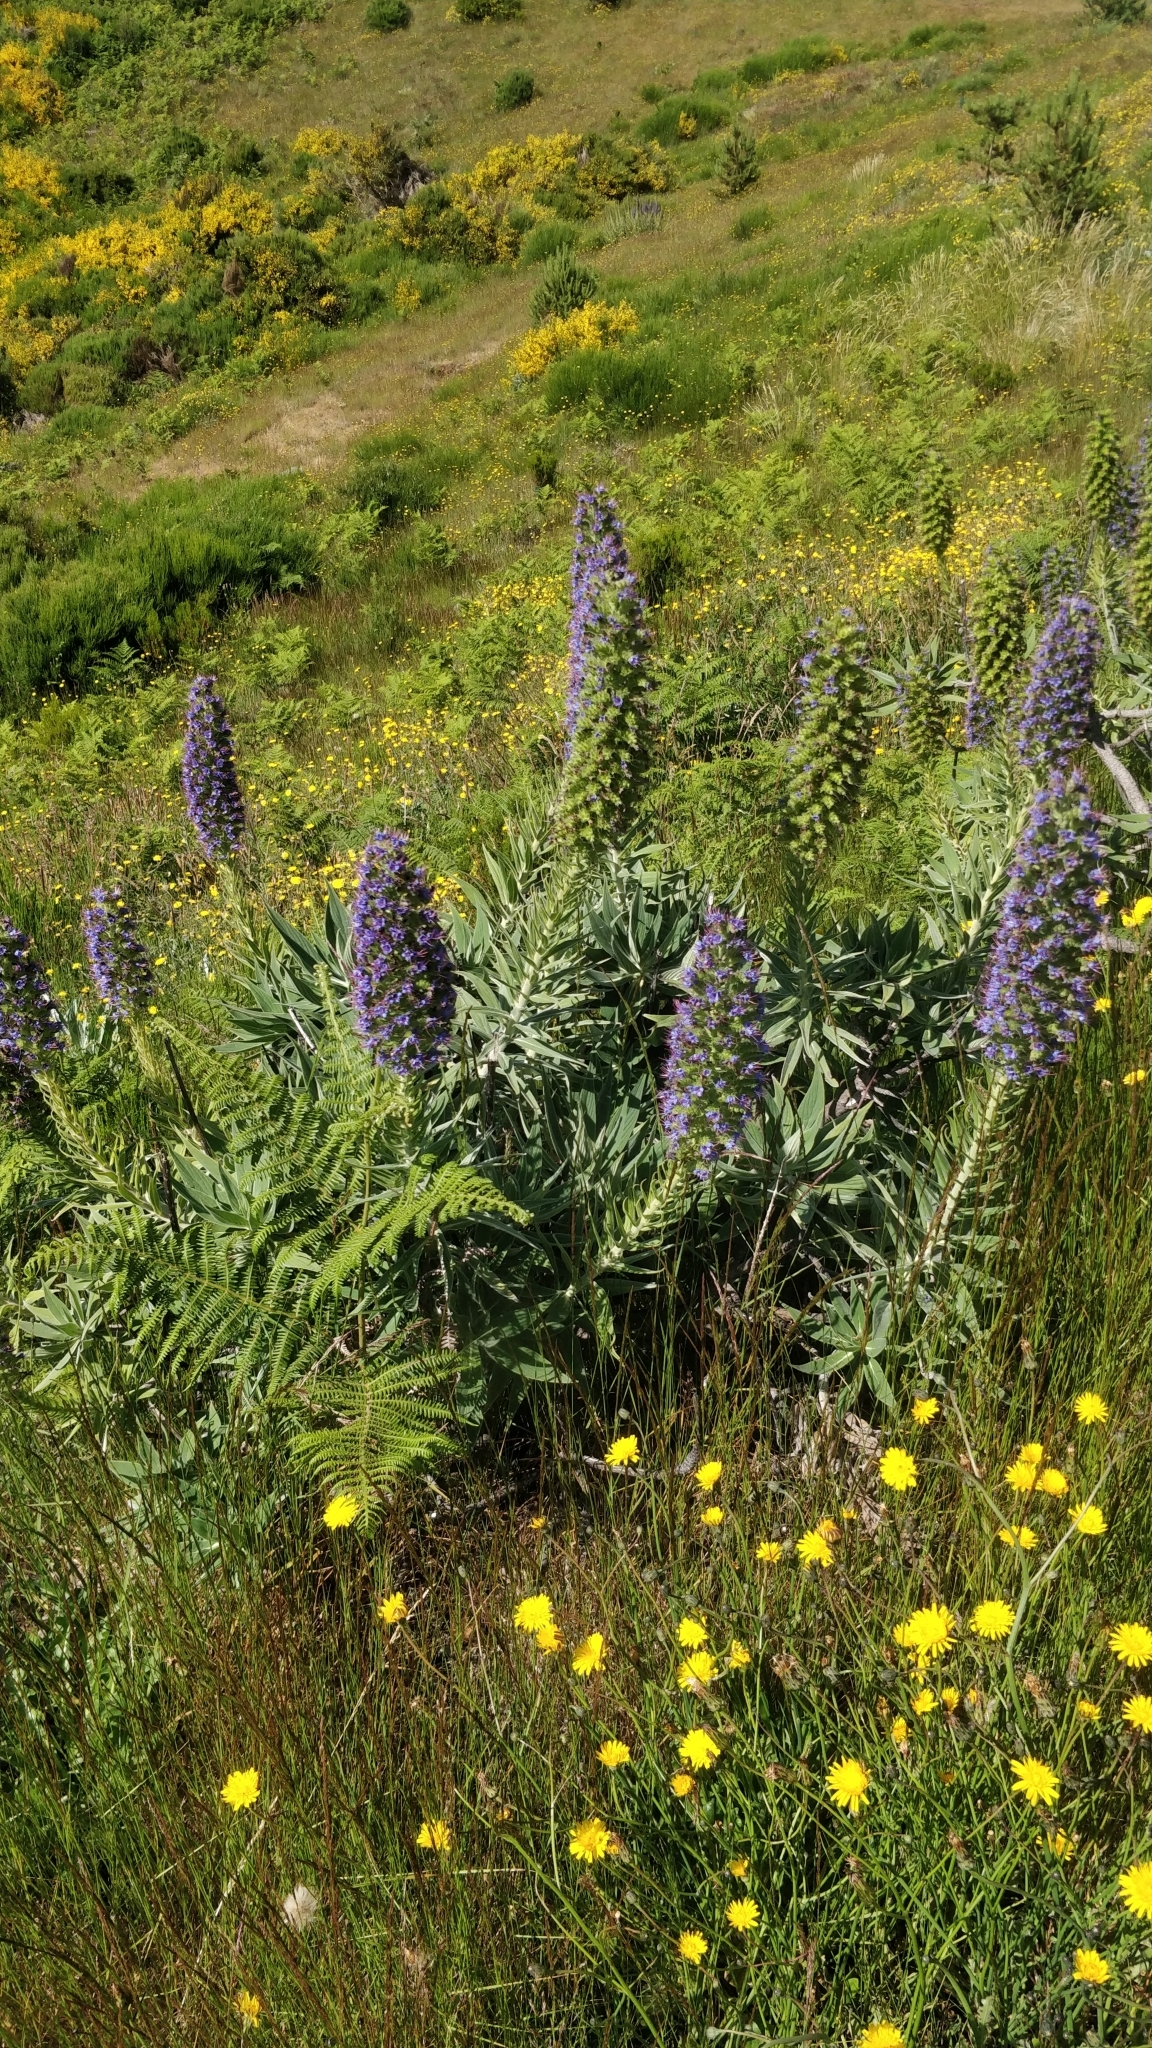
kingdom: Plantae
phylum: Tracheophyta
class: Magnoliopsida
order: Boraginales
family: Boraginaceae
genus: Echium
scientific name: Echium candicans
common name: Pride of madeira
